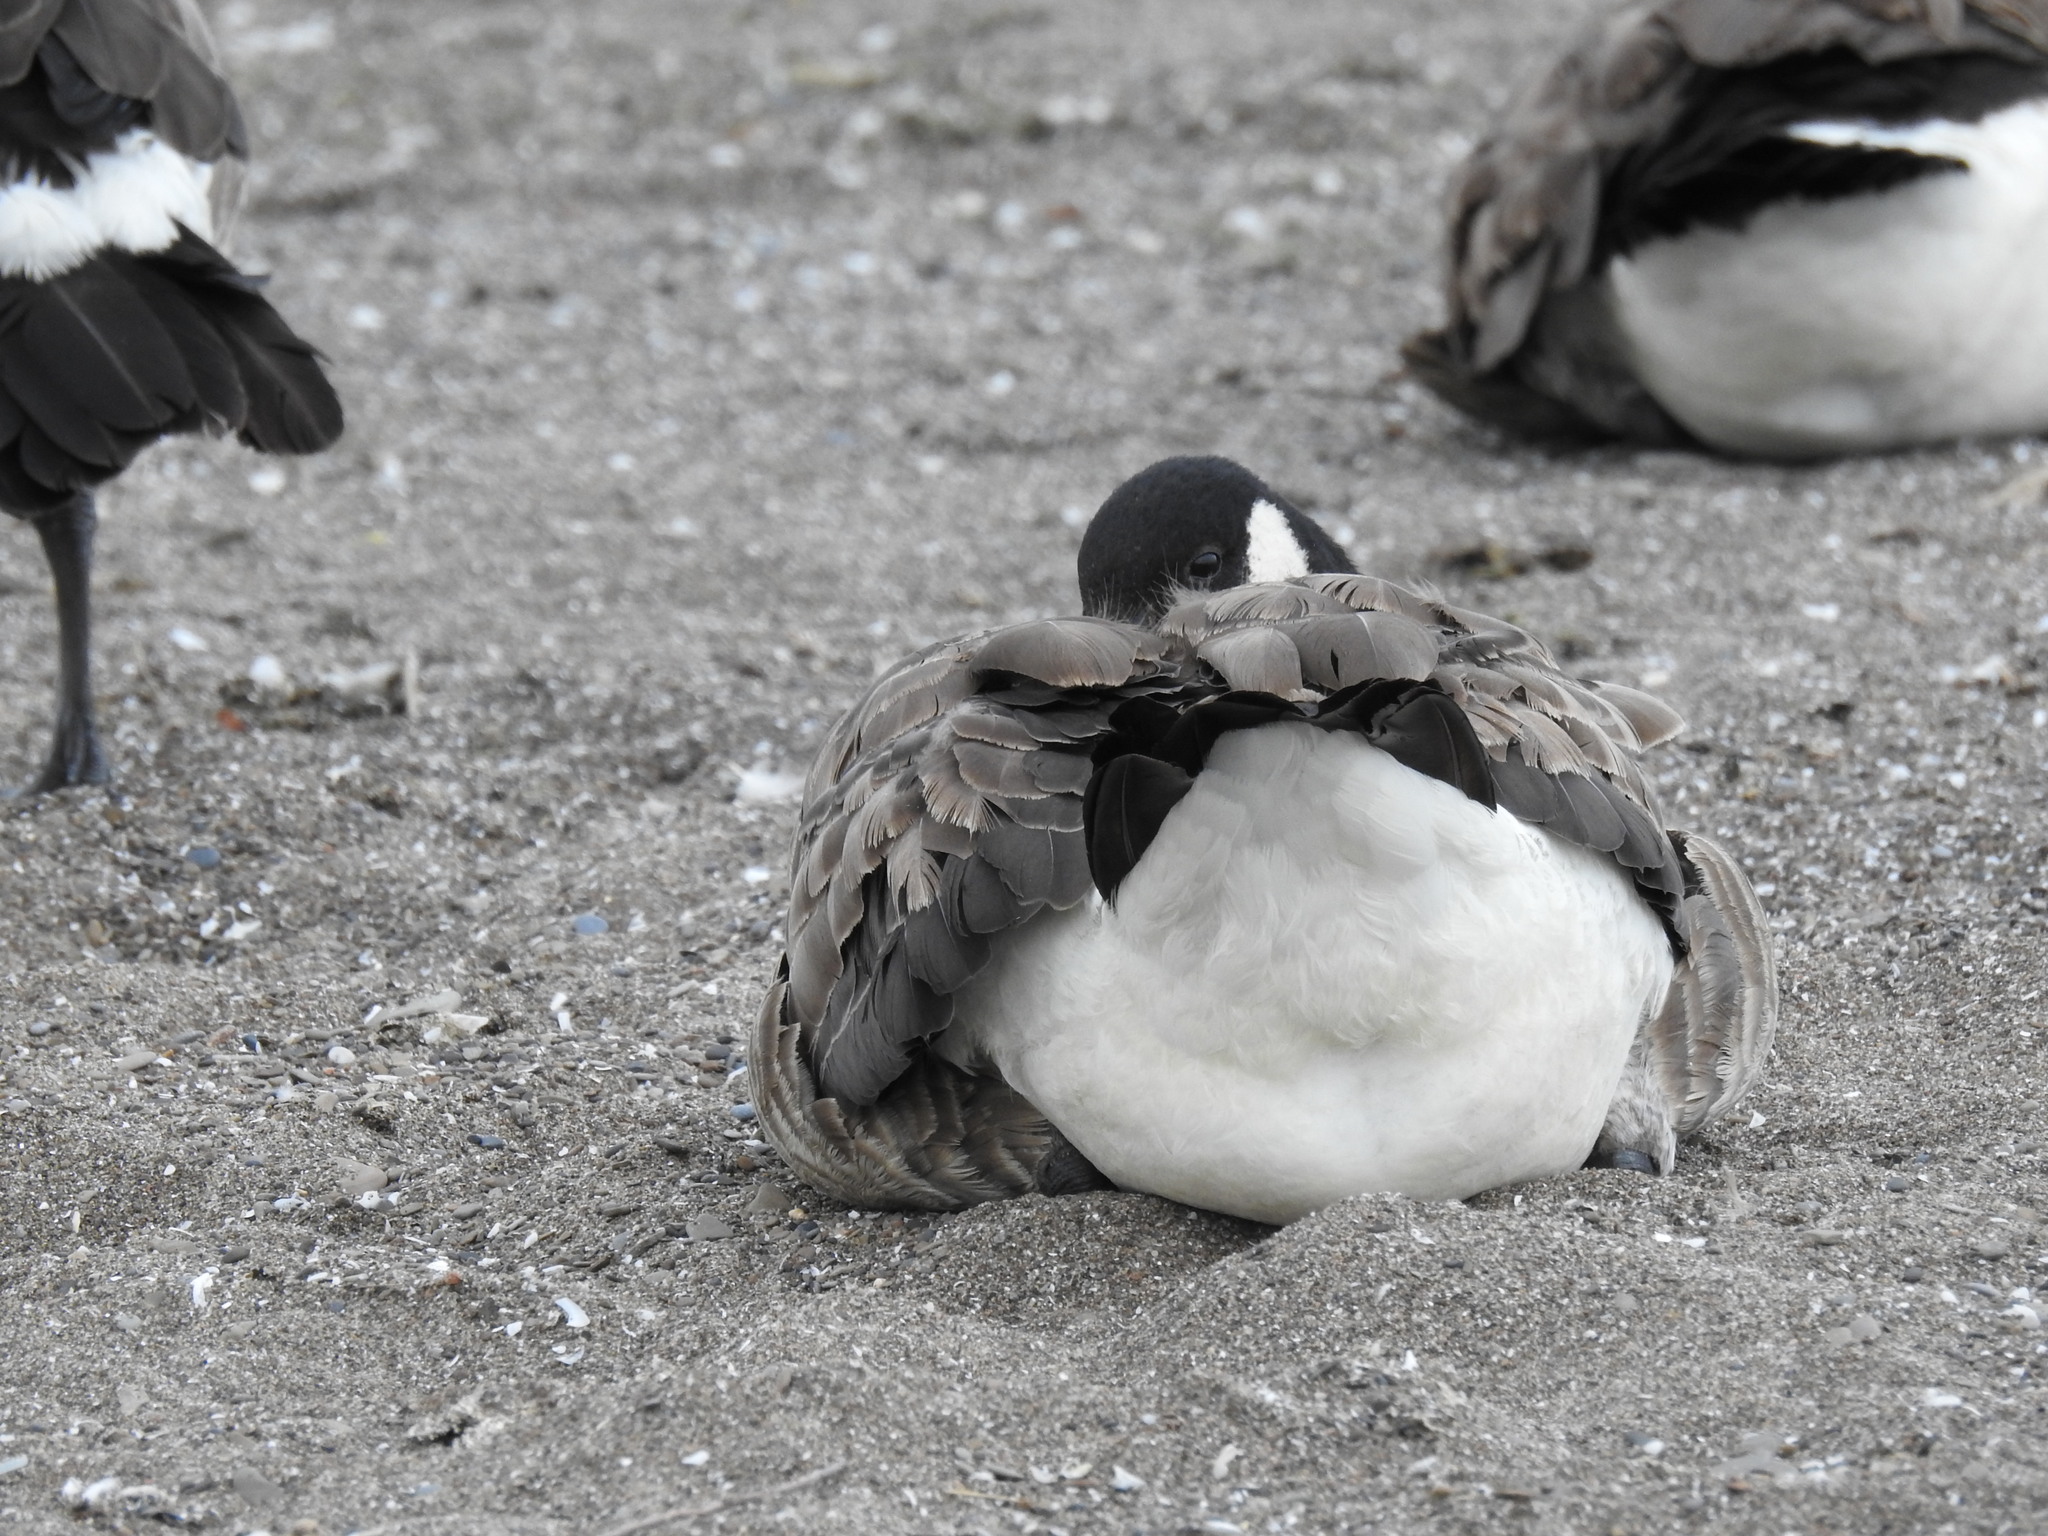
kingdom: Animalia
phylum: Chordata
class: Aves
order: Anseriformes
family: Anatidae
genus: Branta
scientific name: Branta canadensis
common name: Canada goose
